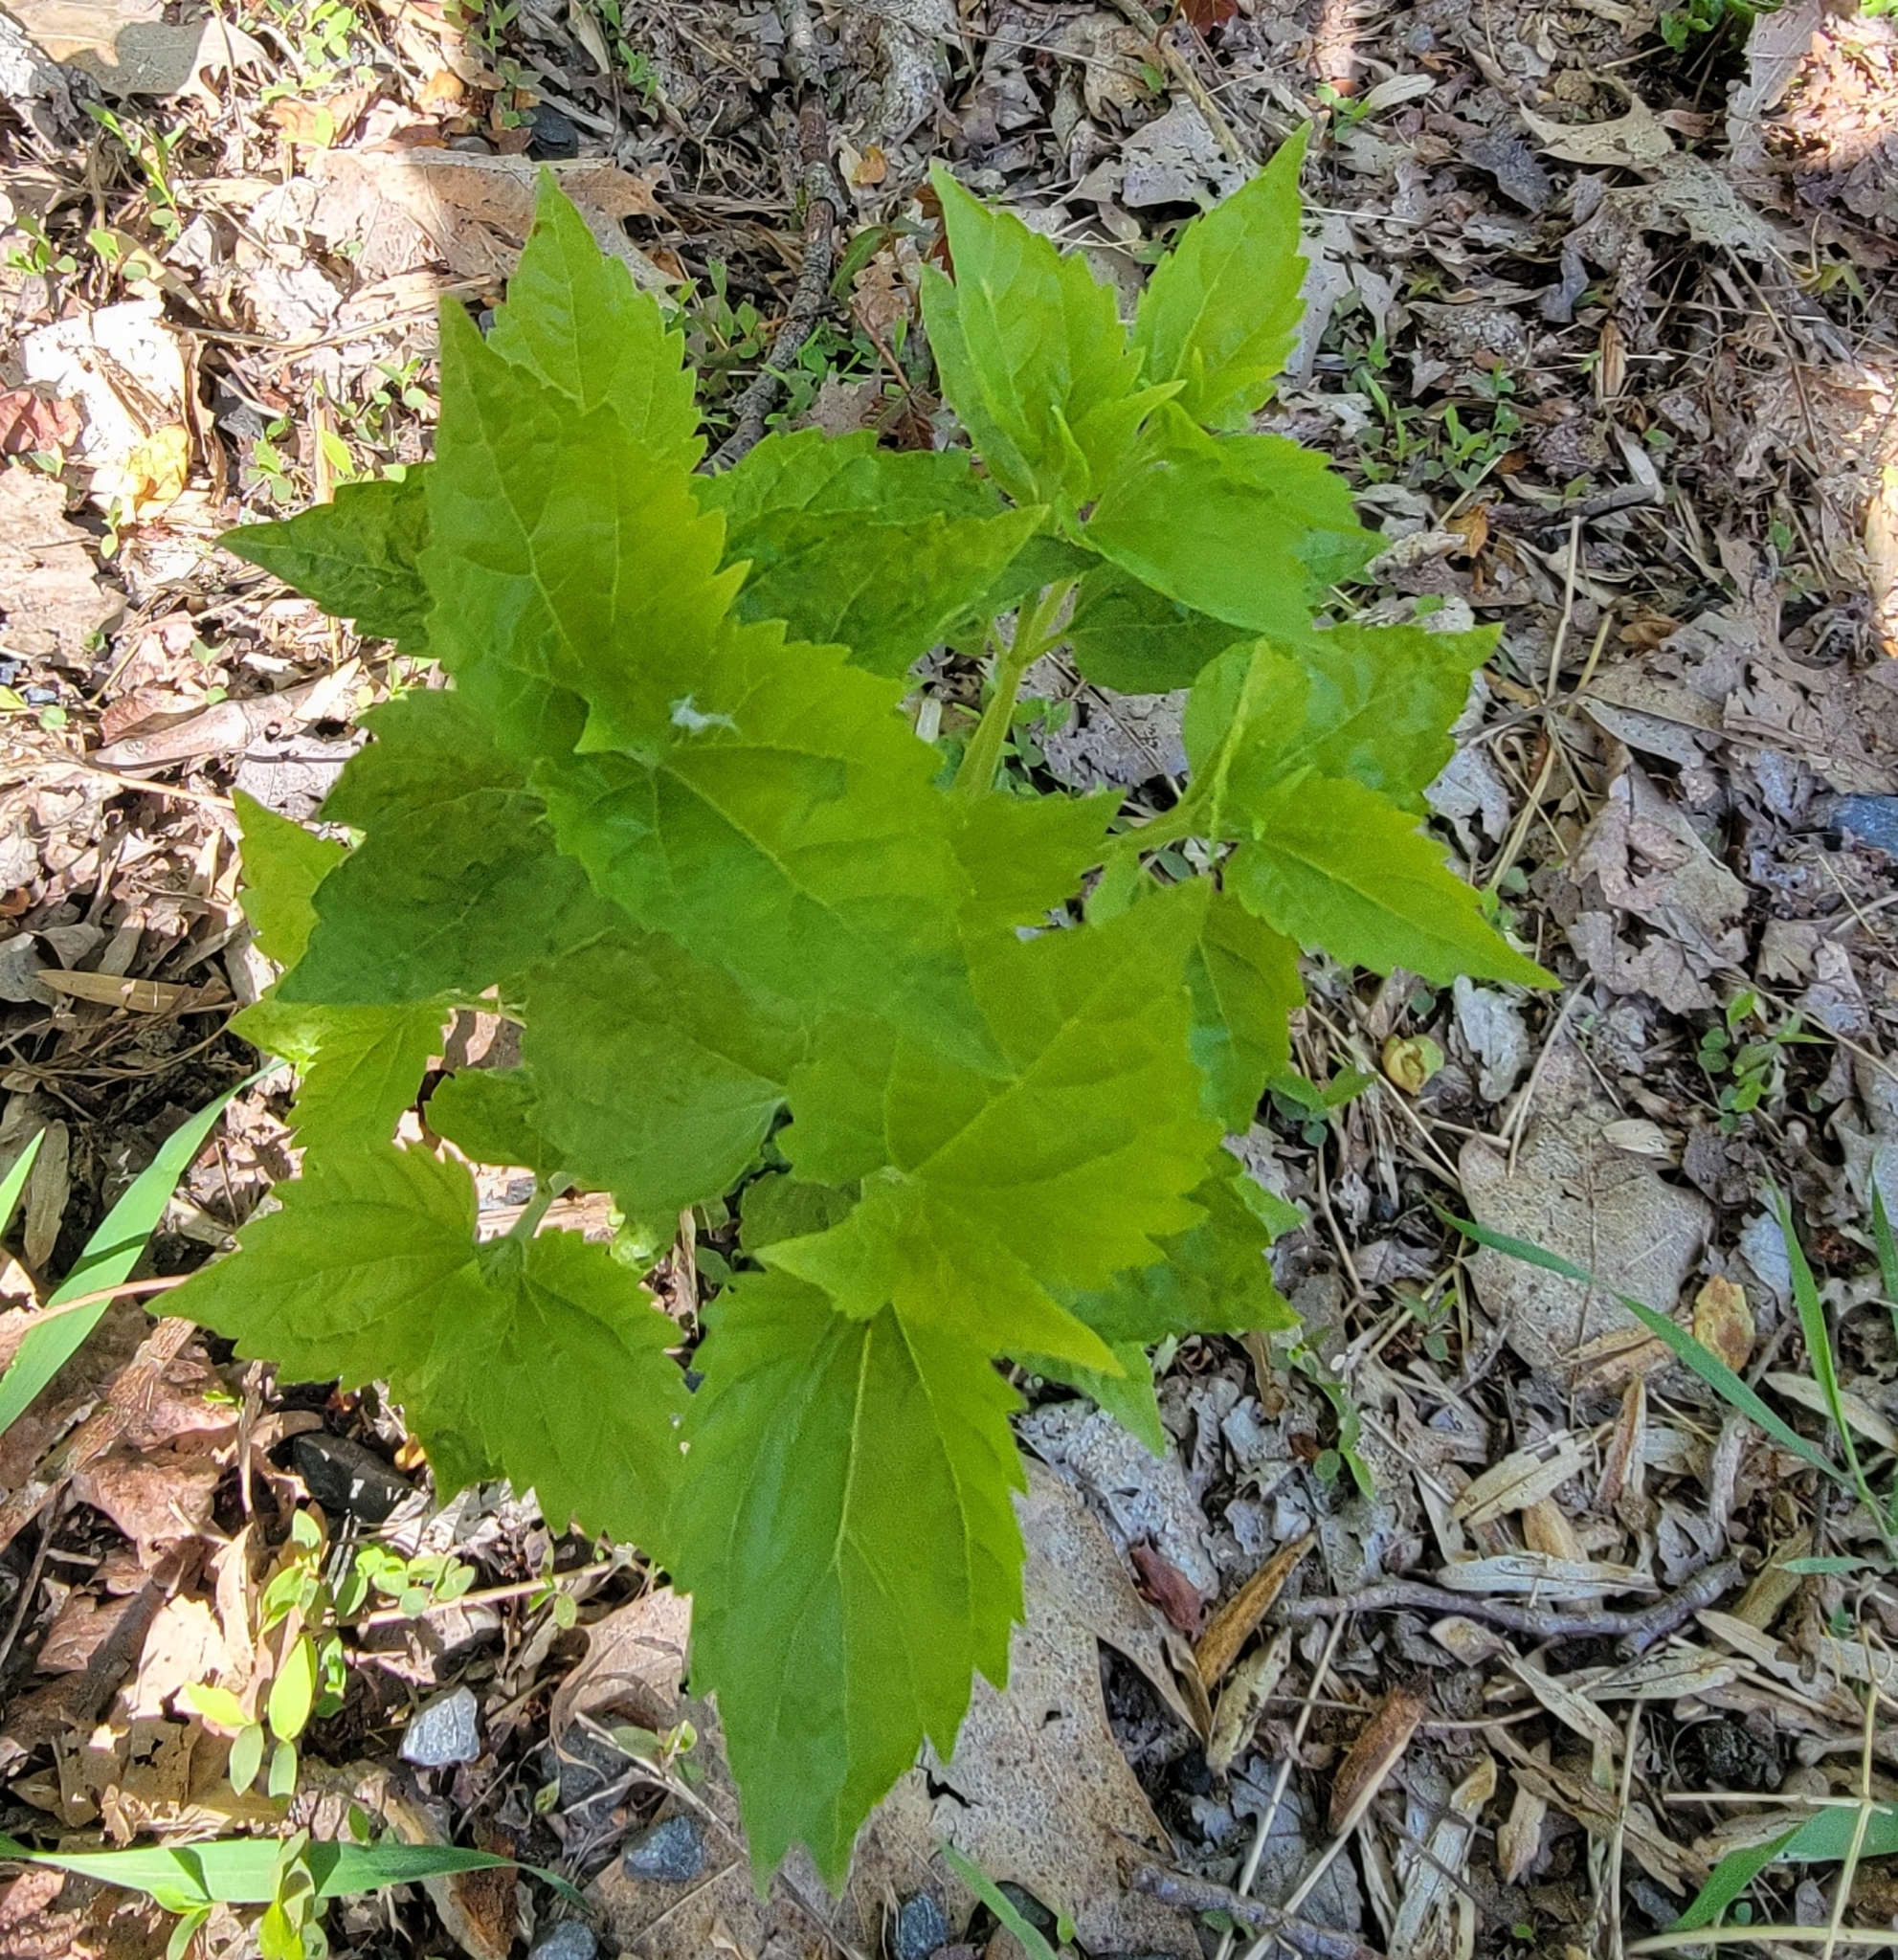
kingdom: Plantae
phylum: Tracheophyta
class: Magnoliopsida
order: Asterales
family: Asteraceae
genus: Ageratina
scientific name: Ageratina altissima
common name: White snakeroot
